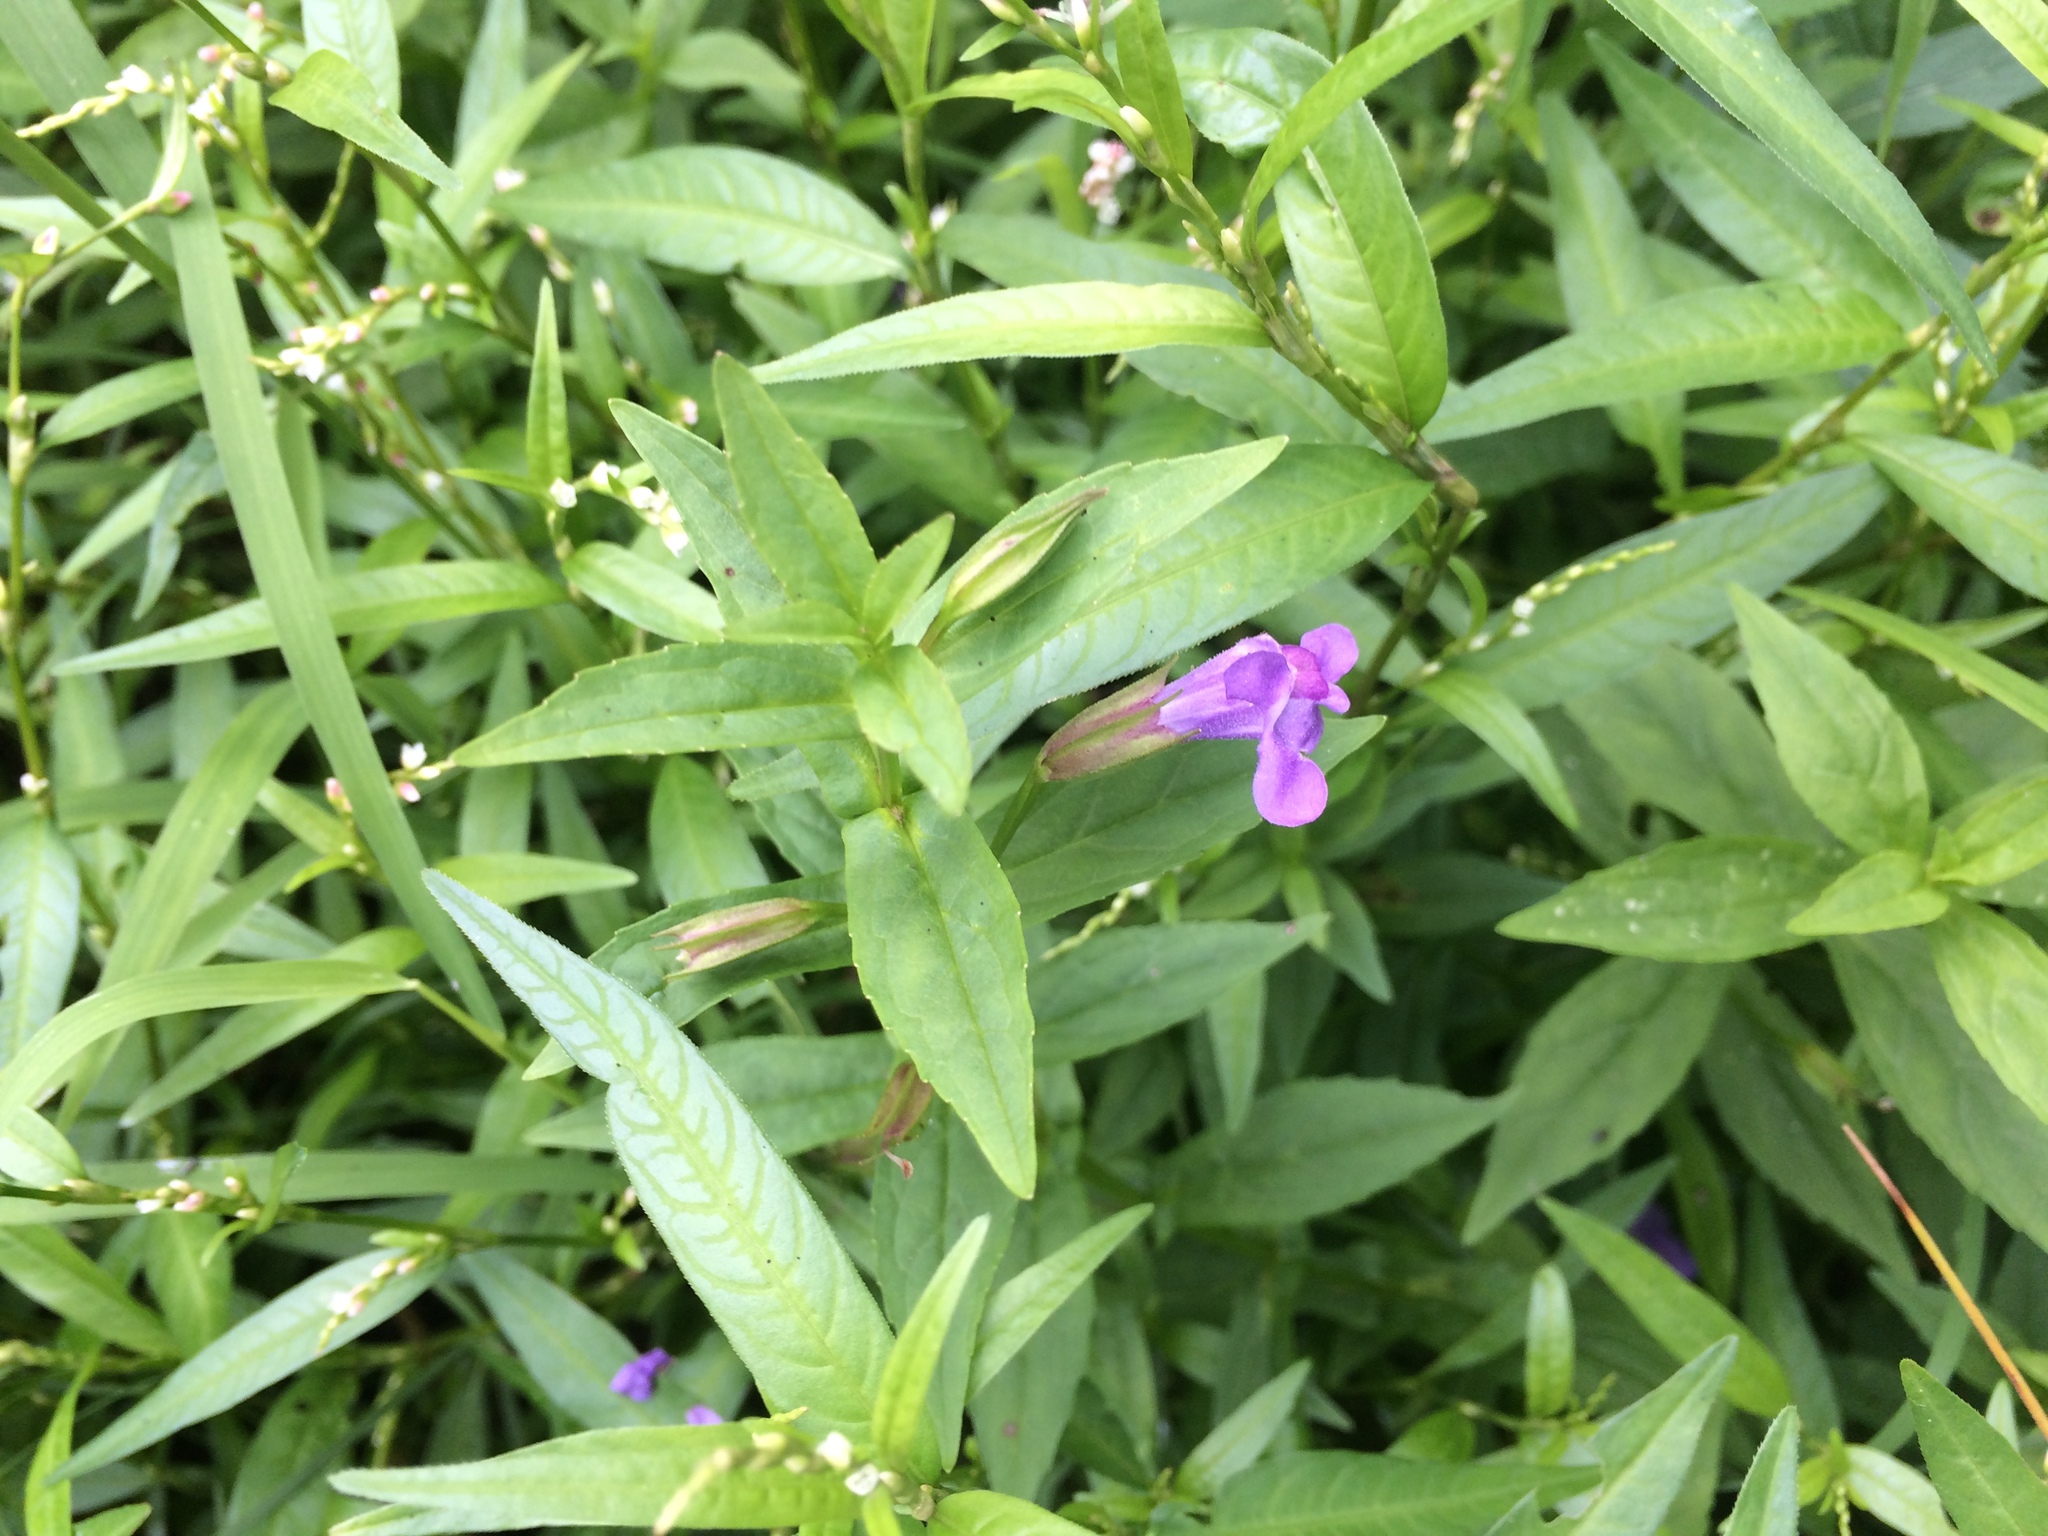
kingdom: Plantae
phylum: Tracheophyta
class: Magnoliopsida
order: Lamiales
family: Phrymaceae
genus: Mimulus
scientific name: Mimulus ringens
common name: Allegheny monkeyflower
